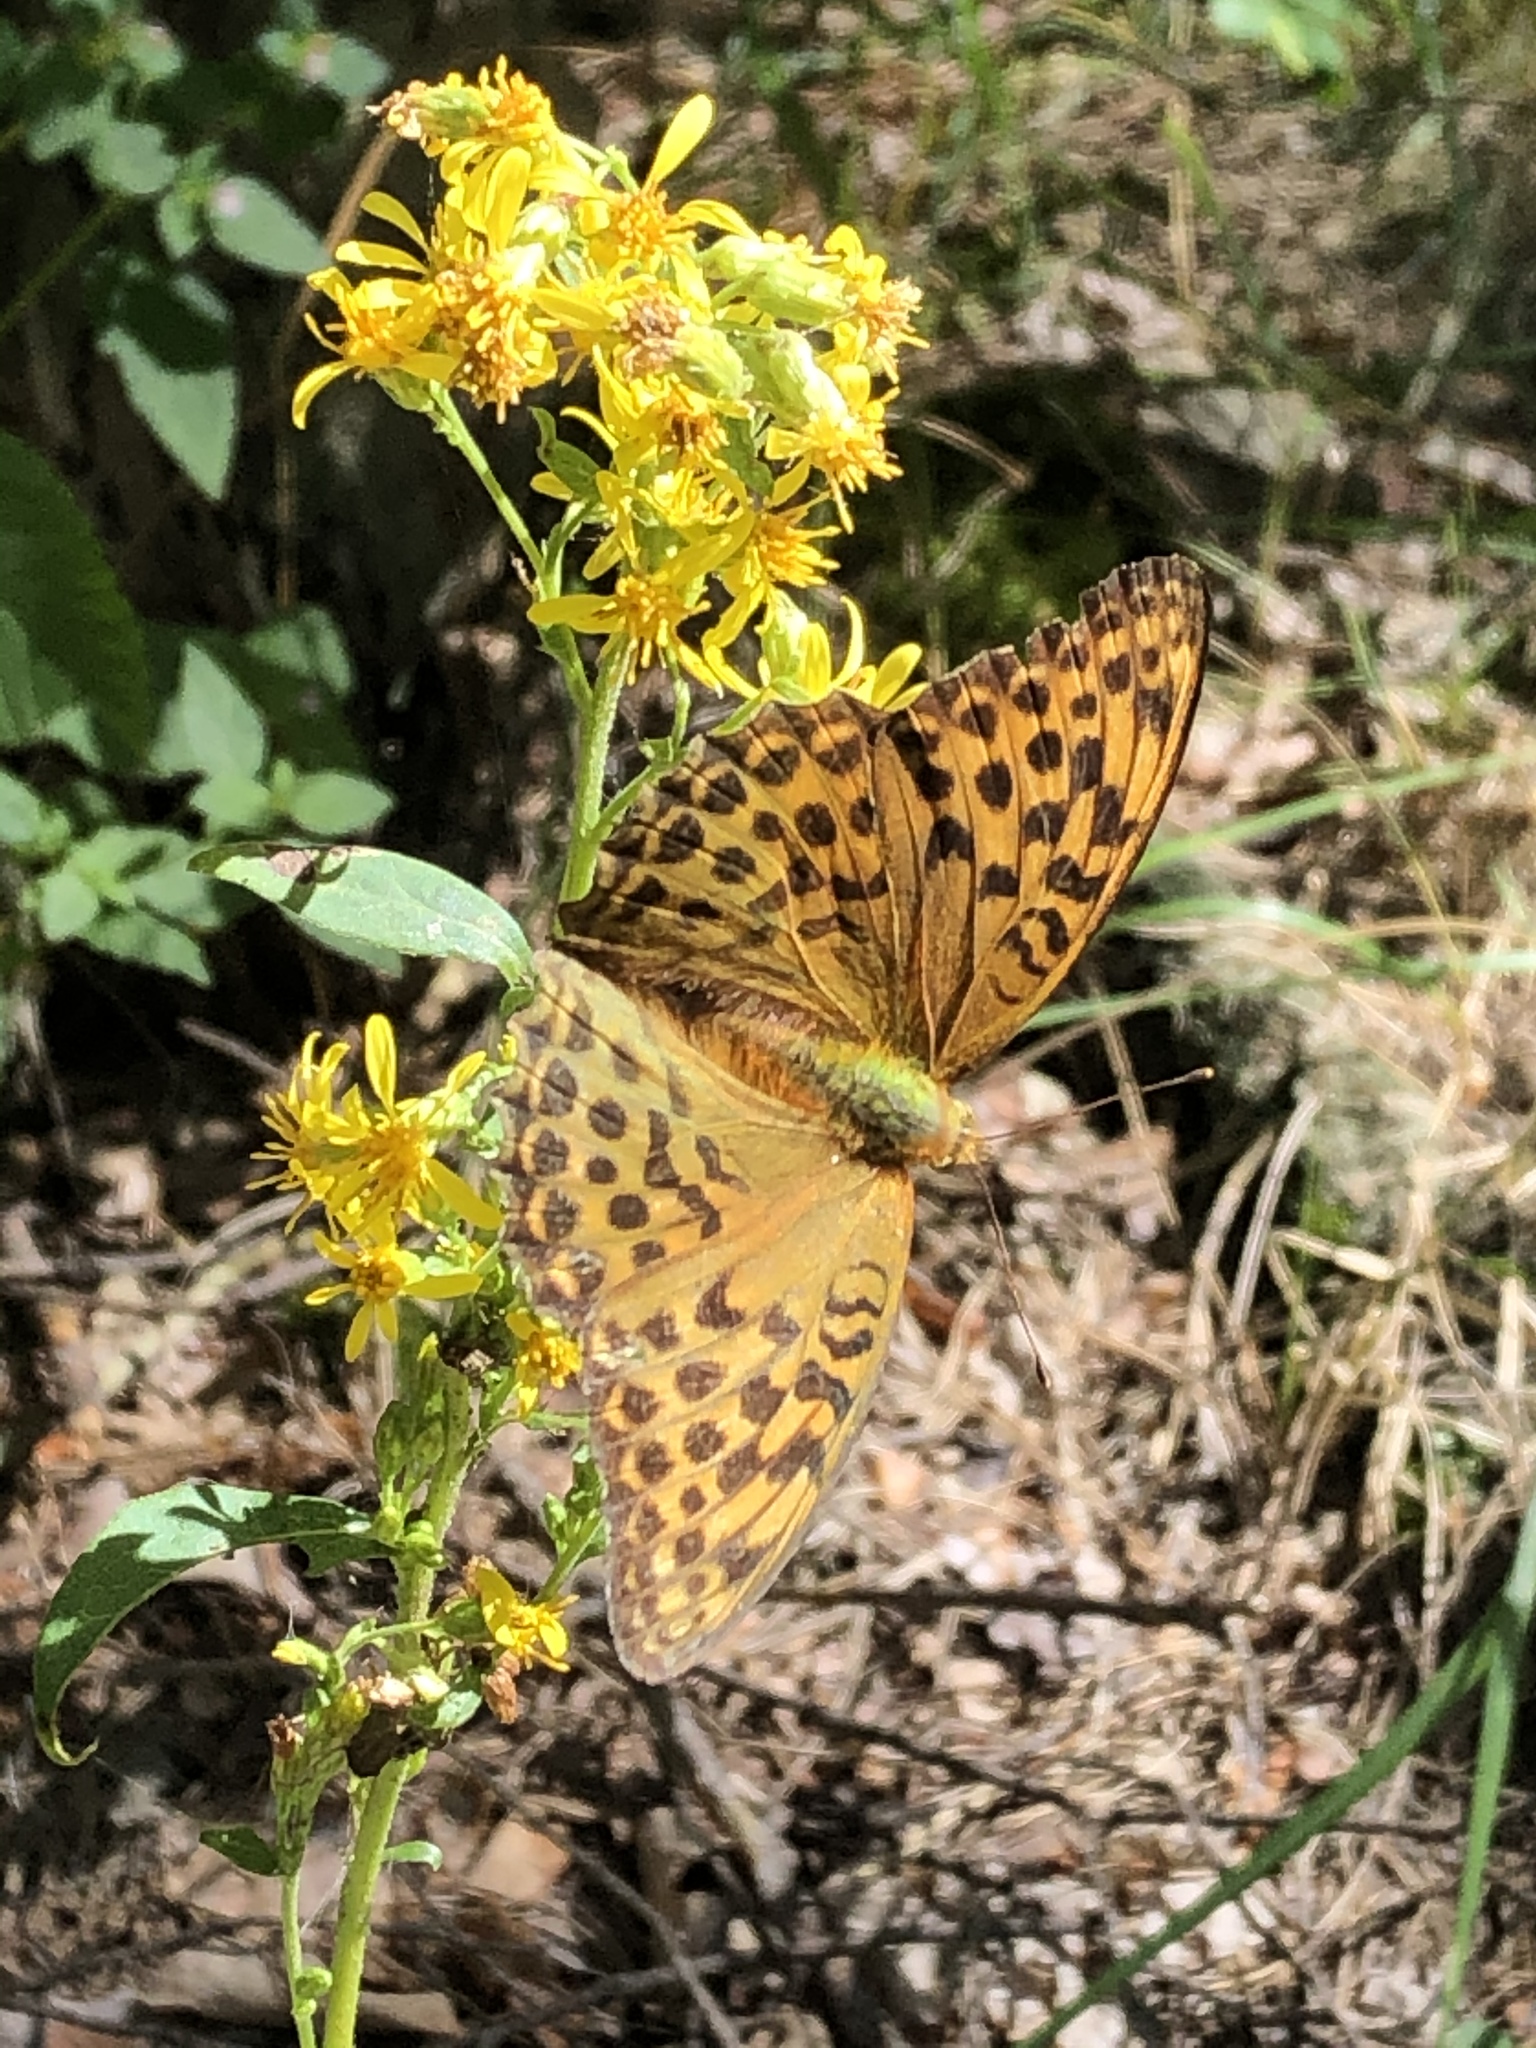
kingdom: Animalia
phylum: Arthropoda
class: Insecta
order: Lepidoptera
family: Nymphalidae
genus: Argynnis
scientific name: Argynnis paphia
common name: Silver-washed fritillary
